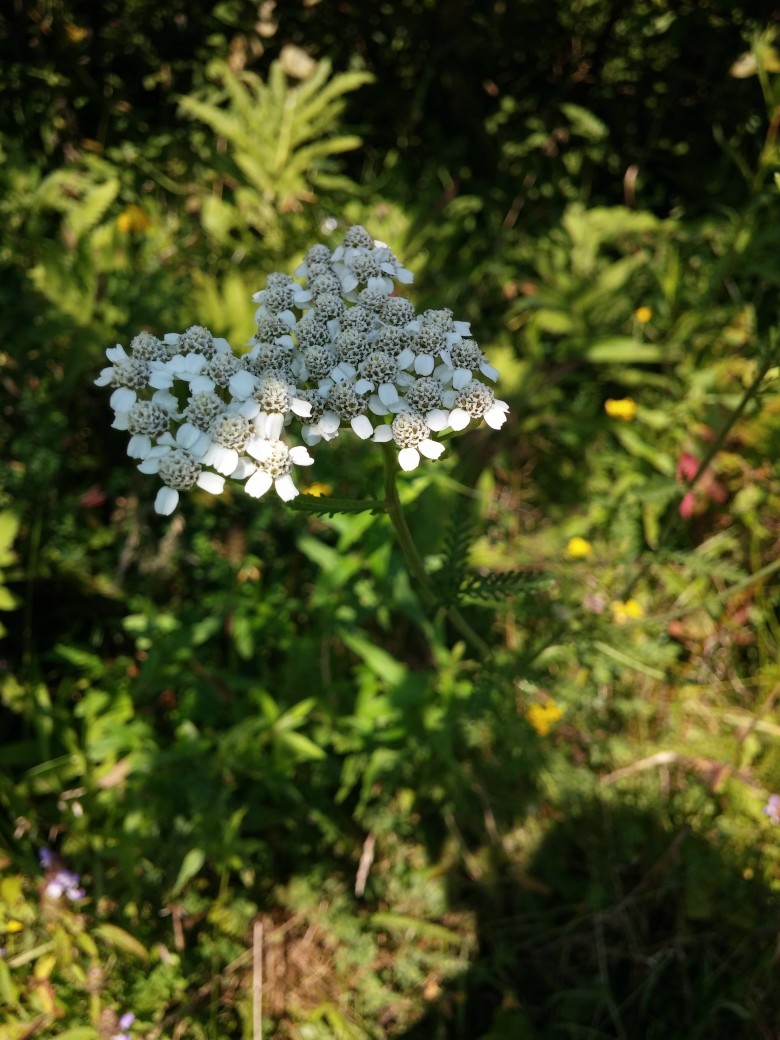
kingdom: Plantae
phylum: Tracheophyta
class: Magnoliopsida
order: Asterales
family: Asteraceae
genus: Achillea
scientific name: Achillea millefolium
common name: Yarrow
